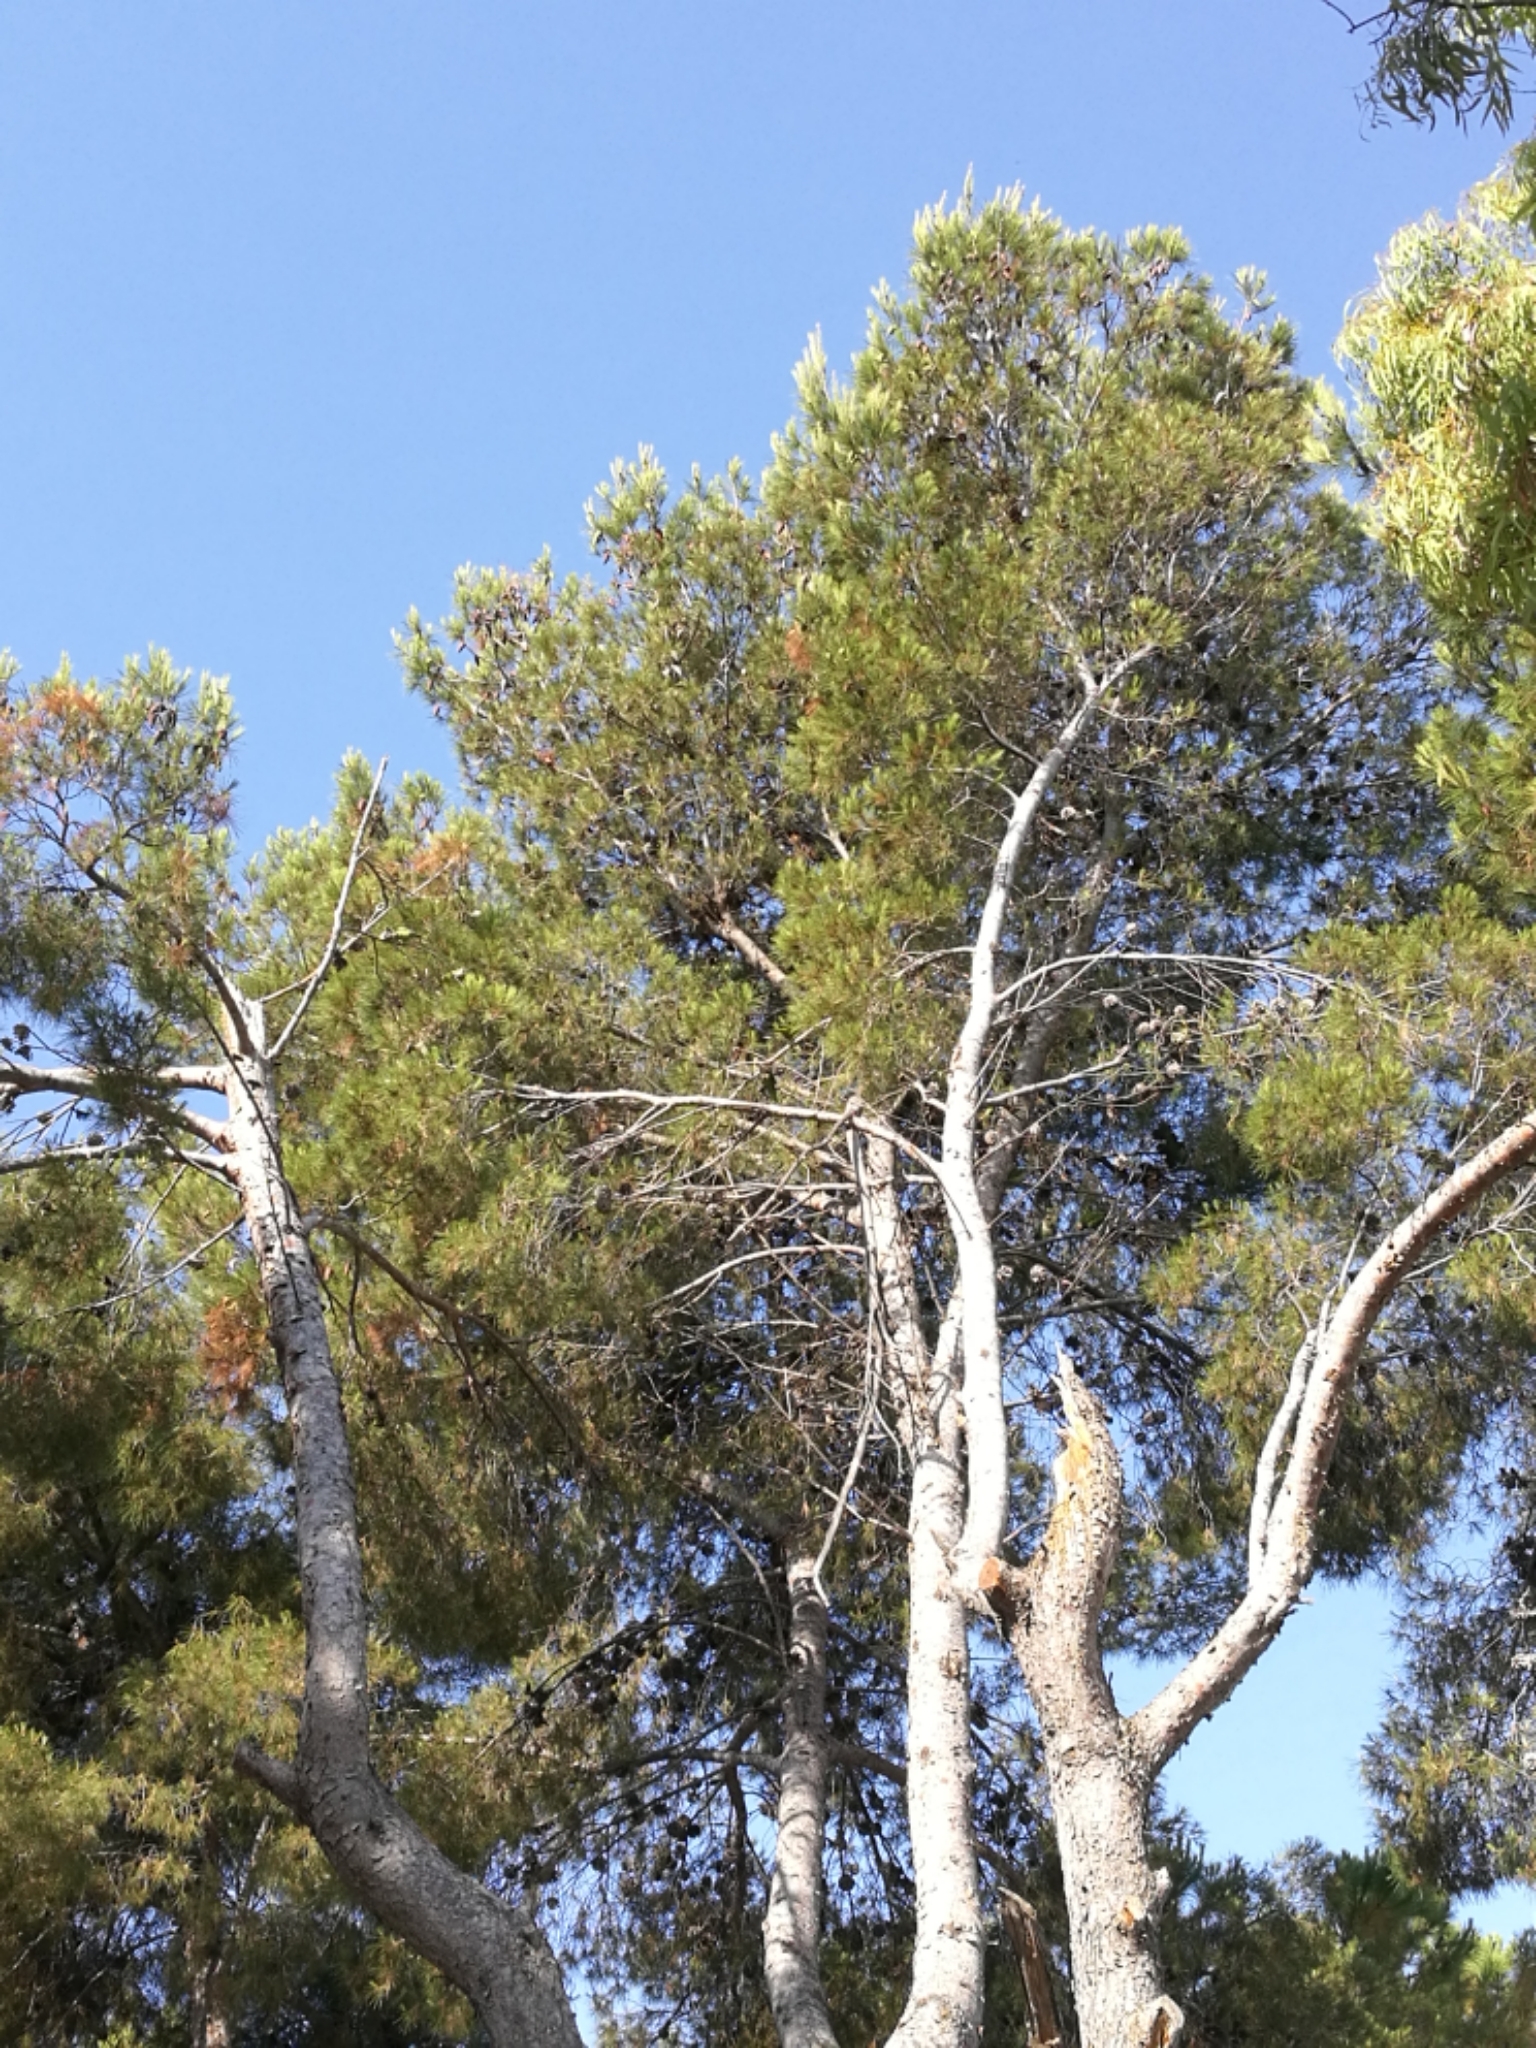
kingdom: Animalia
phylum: Chordata
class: Aves
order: Psittaciformes
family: Psittacidae
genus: Myiopsitta
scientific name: Myiopsitta monachus
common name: Monk parakeet
